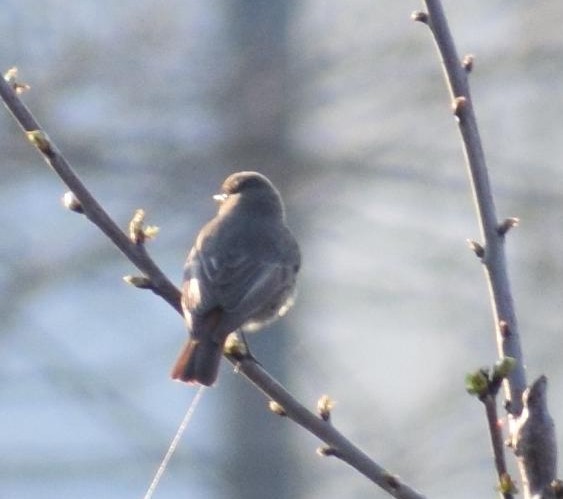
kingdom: Animalia
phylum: Chordata
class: Aves
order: Passeriformes
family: Muscicapidae
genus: Phoenicurus
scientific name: Phoenicurus ochruros
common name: Black redstart
